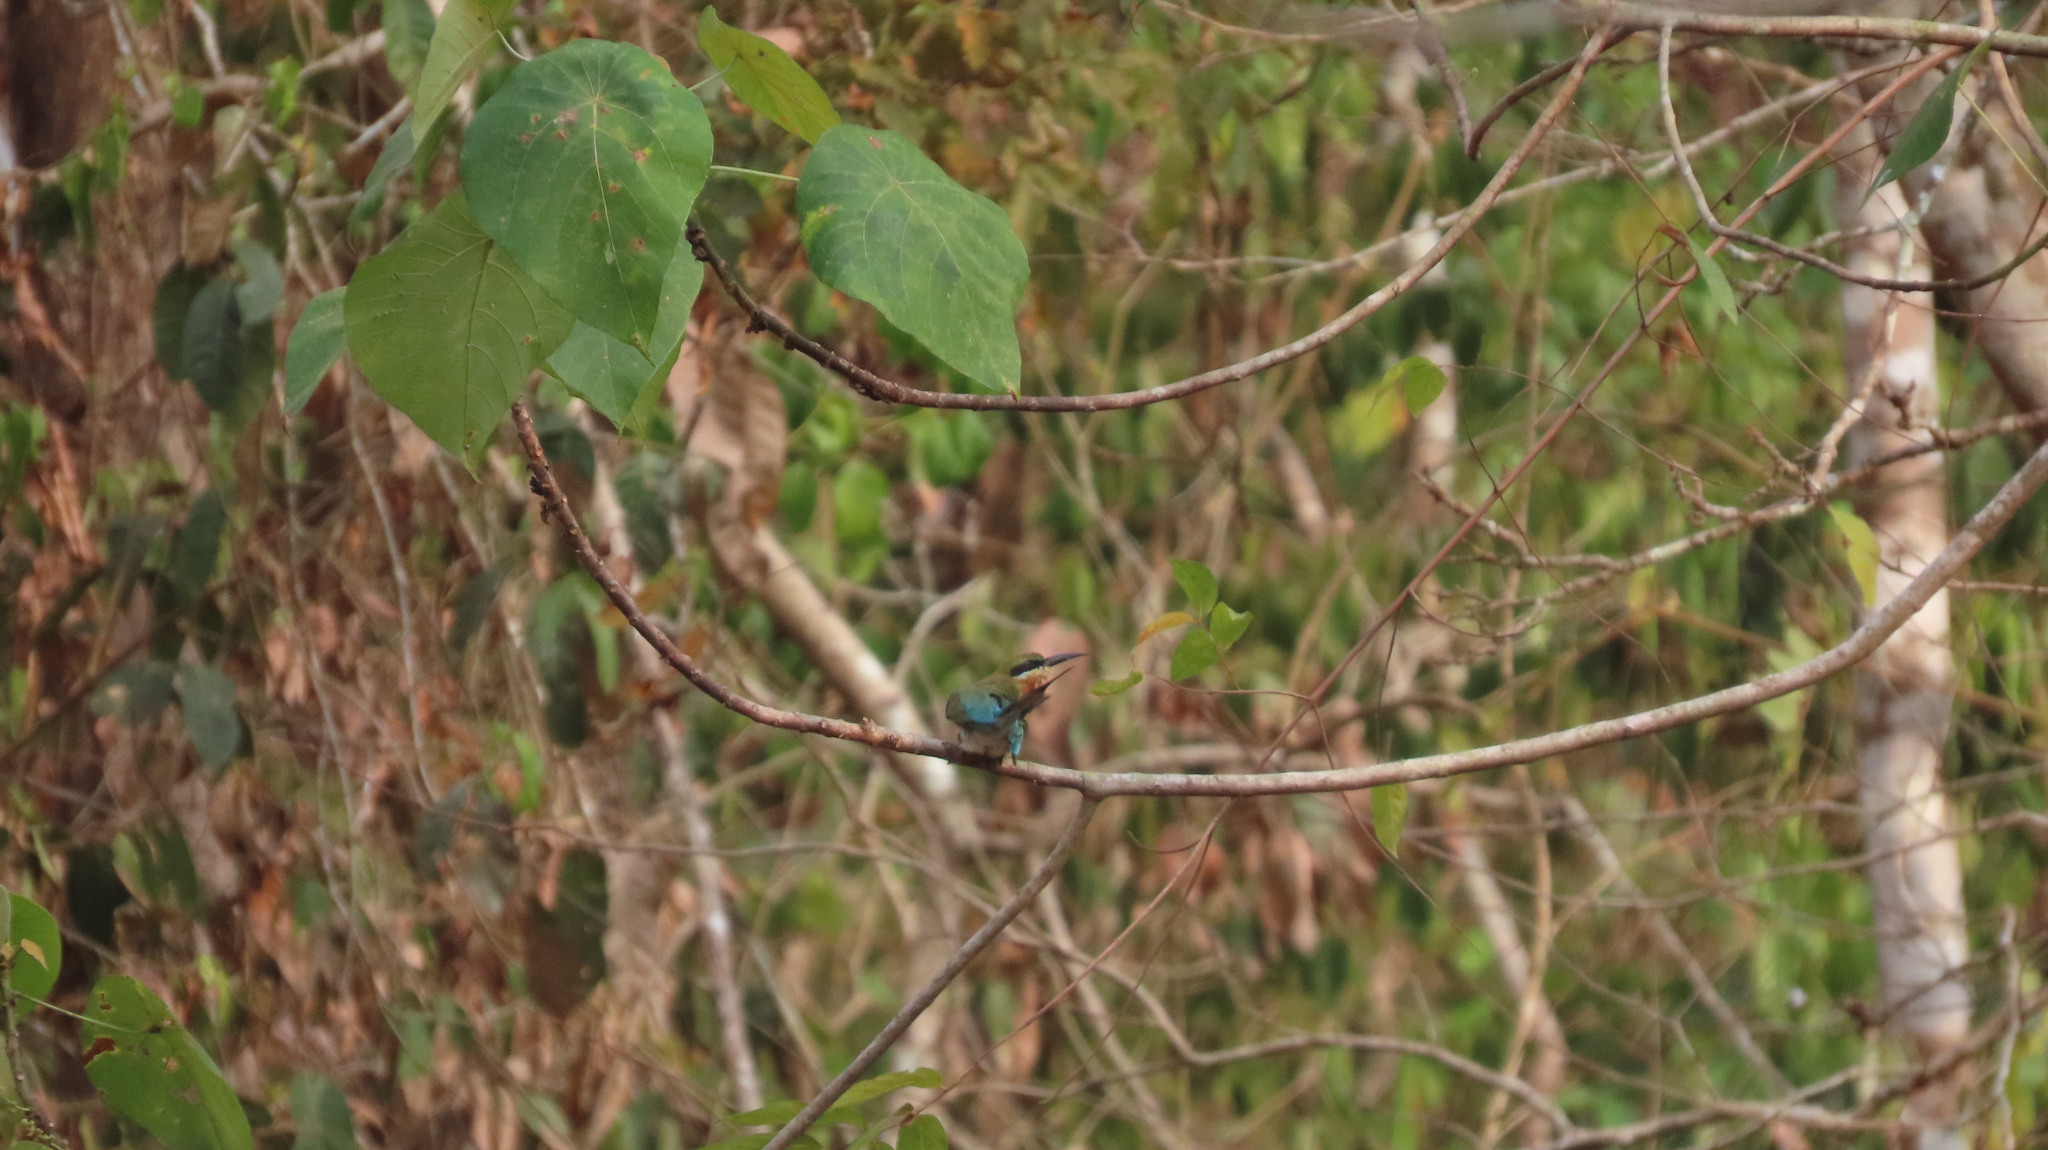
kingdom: Animalia
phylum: Chordata
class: Aves
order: Coraciiformes
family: Meropidae
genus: Merops
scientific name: Merops philippinus
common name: Blue-tailed bee-eater
